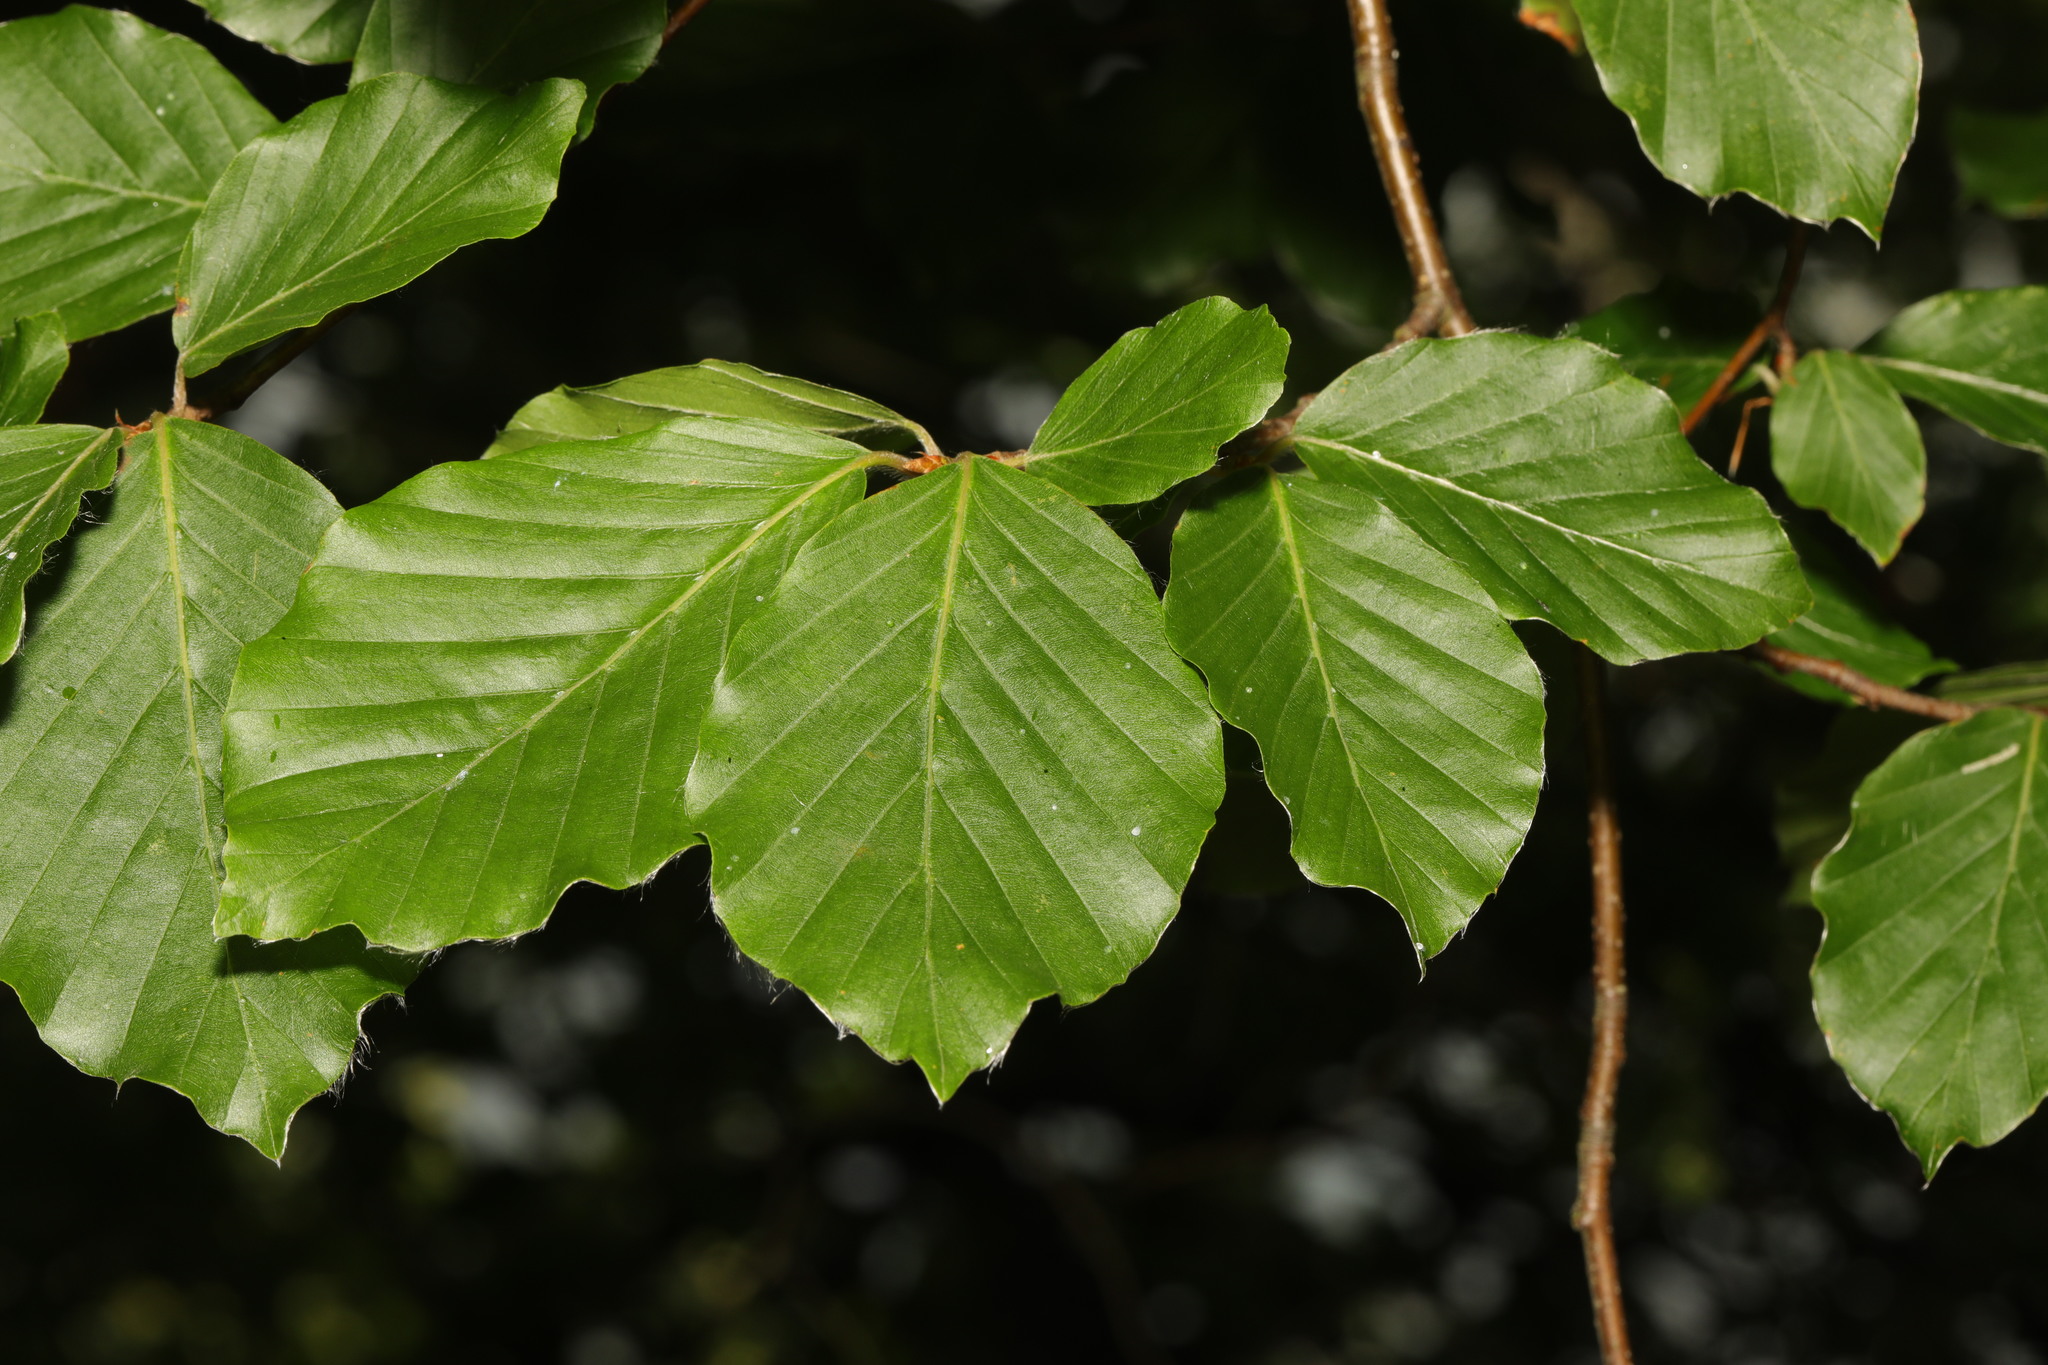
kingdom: Plantae
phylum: Tracheophyta
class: Magnoliopsida
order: Fagales
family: Fagaceae
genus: Fagus
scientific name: Fagus sylvatica
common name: Beech
